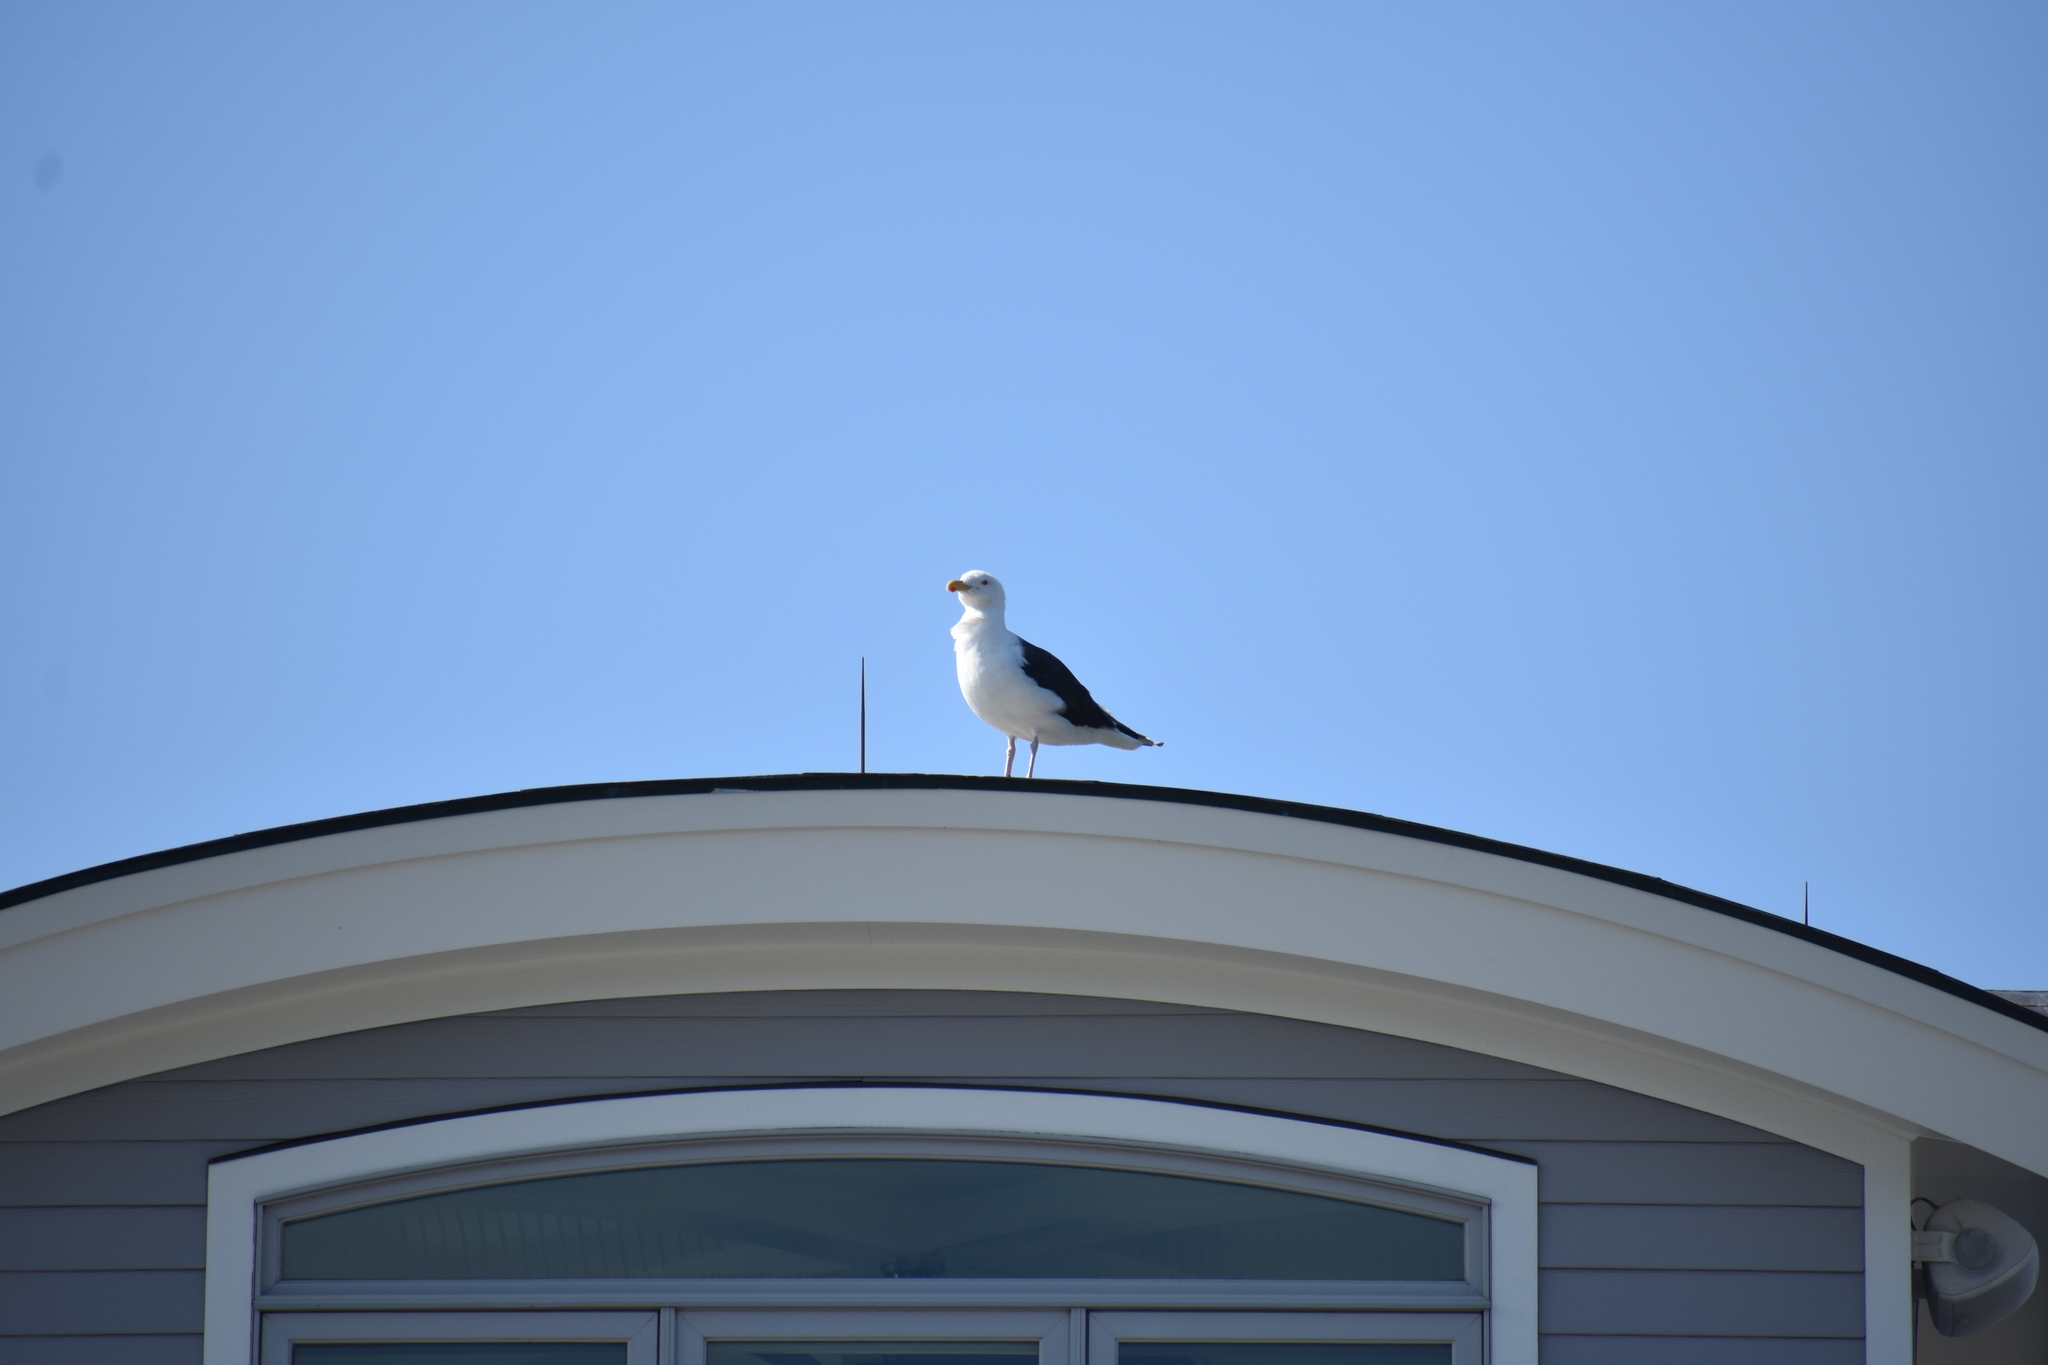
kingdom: Animalia
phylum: Chordata
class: Aves
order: Charadriiformes
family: Laridae
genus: Larus
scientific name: Larus marinus
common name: Great black-backed gull
